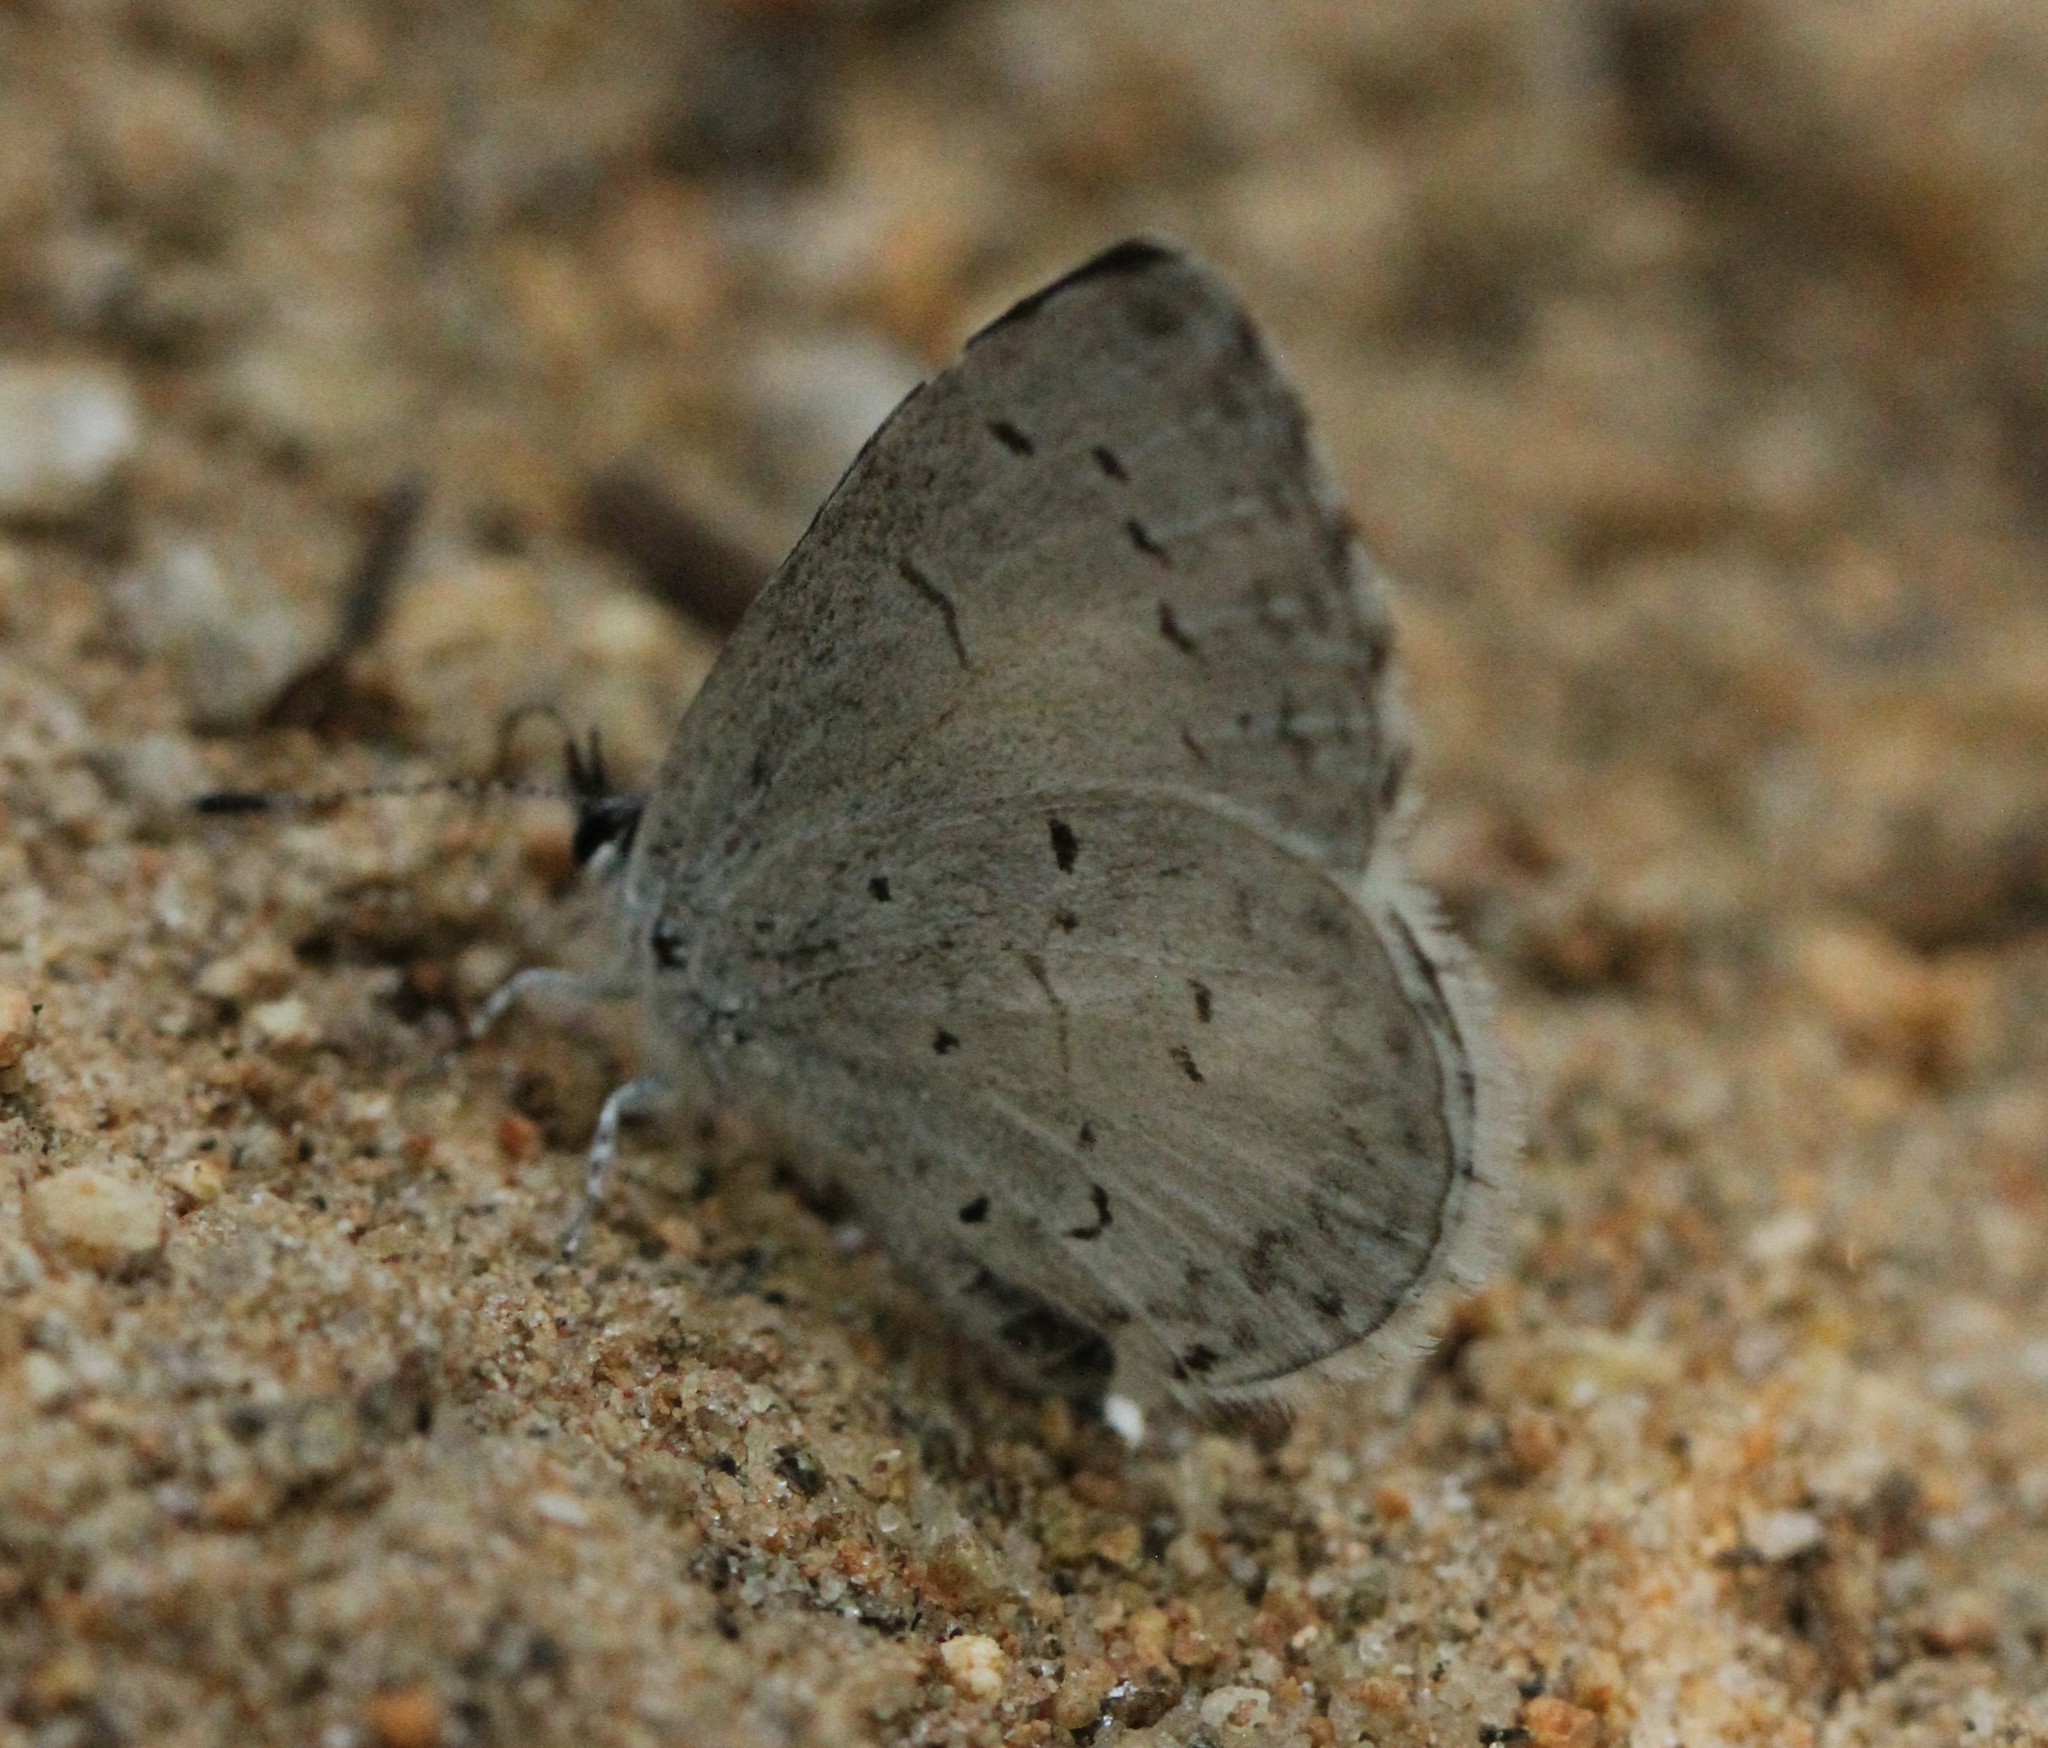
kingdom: Animalia
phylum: Arthropoda
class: Insecta
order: Lepidoptera
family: Lycaenidae
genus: Cyaniris
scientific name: Cyaniris neglecta
